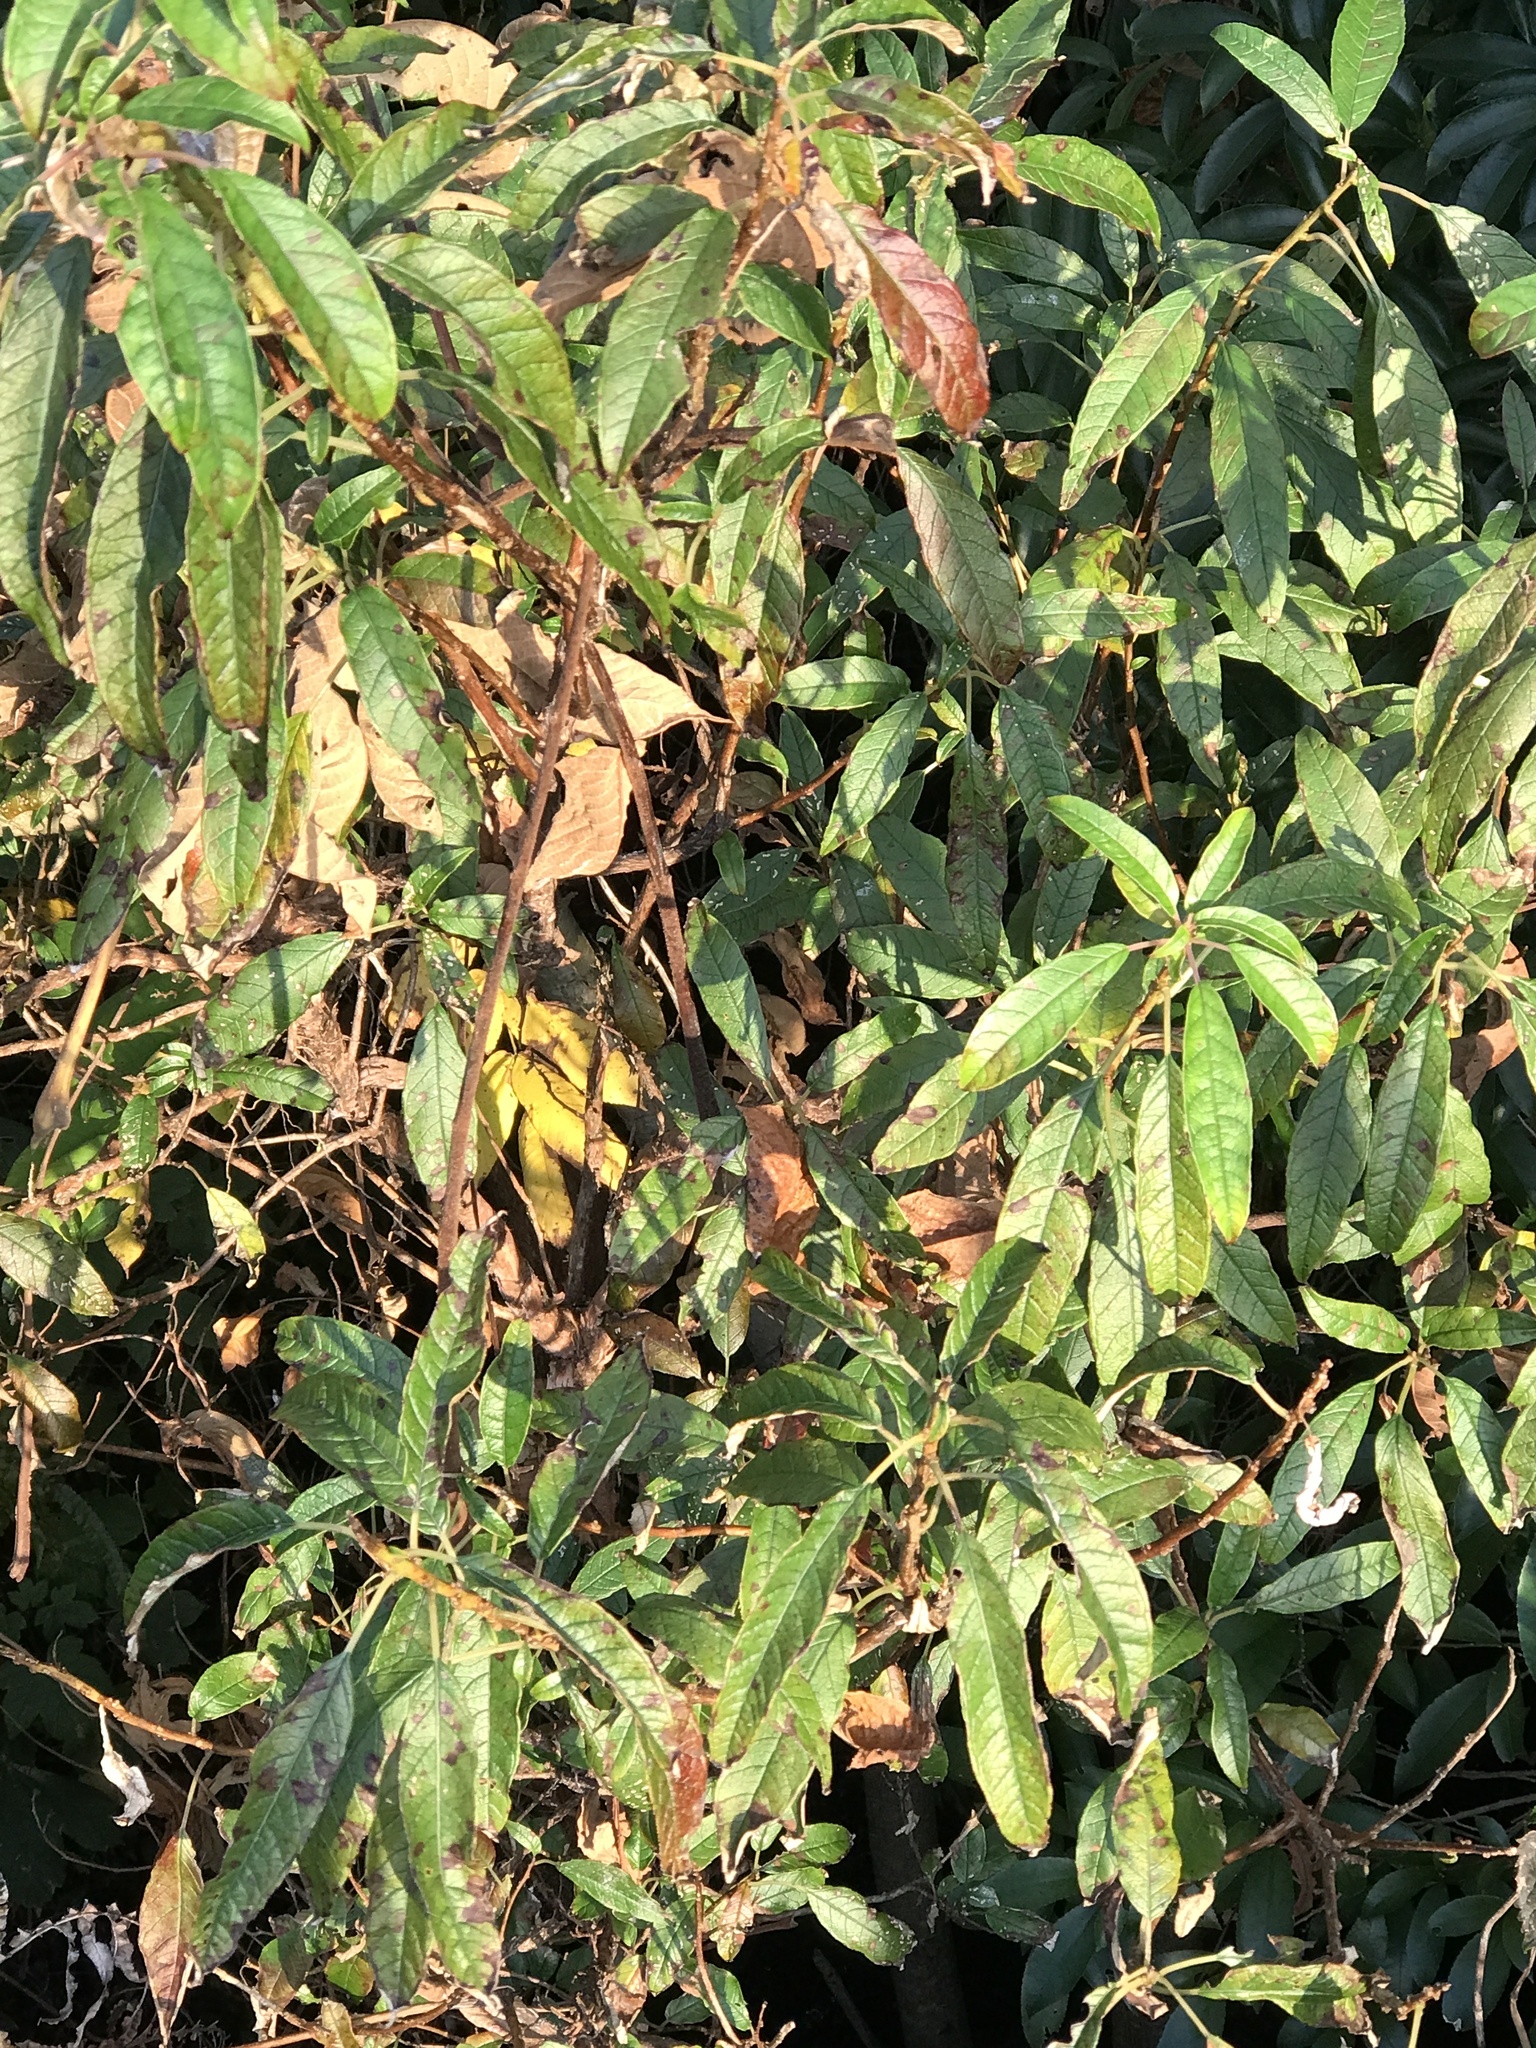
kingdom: Plantae
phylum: Tracheophyta
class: Magnoliopsida
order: Myrtales
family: Onagraceae
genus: Fuchsia
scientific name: Fuchsia excorticata
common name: Tree fuchsia
